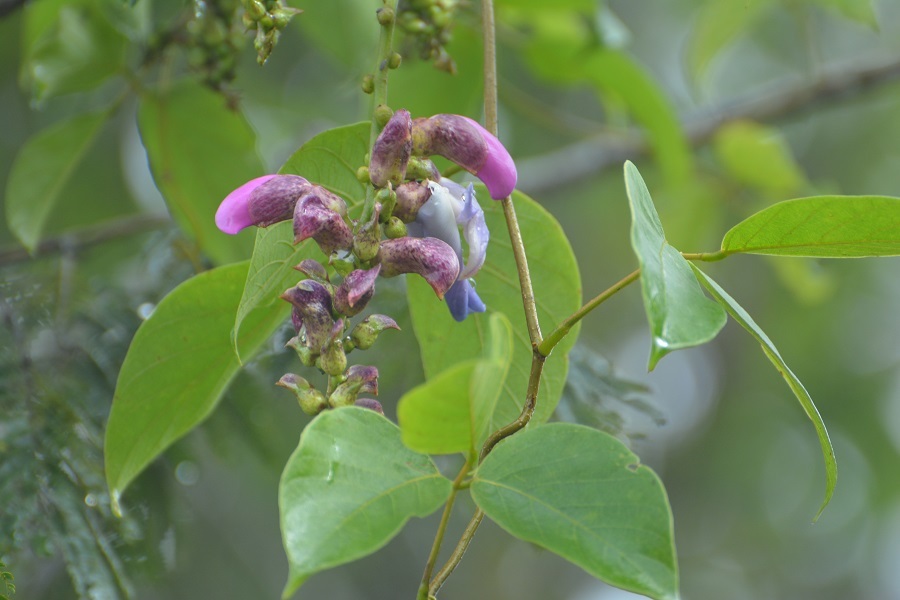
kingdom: Plantae
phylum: Tracheophyta
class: Magnoliopsida
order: Fabales
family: Fabaceae
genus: Canavalia
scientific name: Canavalia oxyphylla
